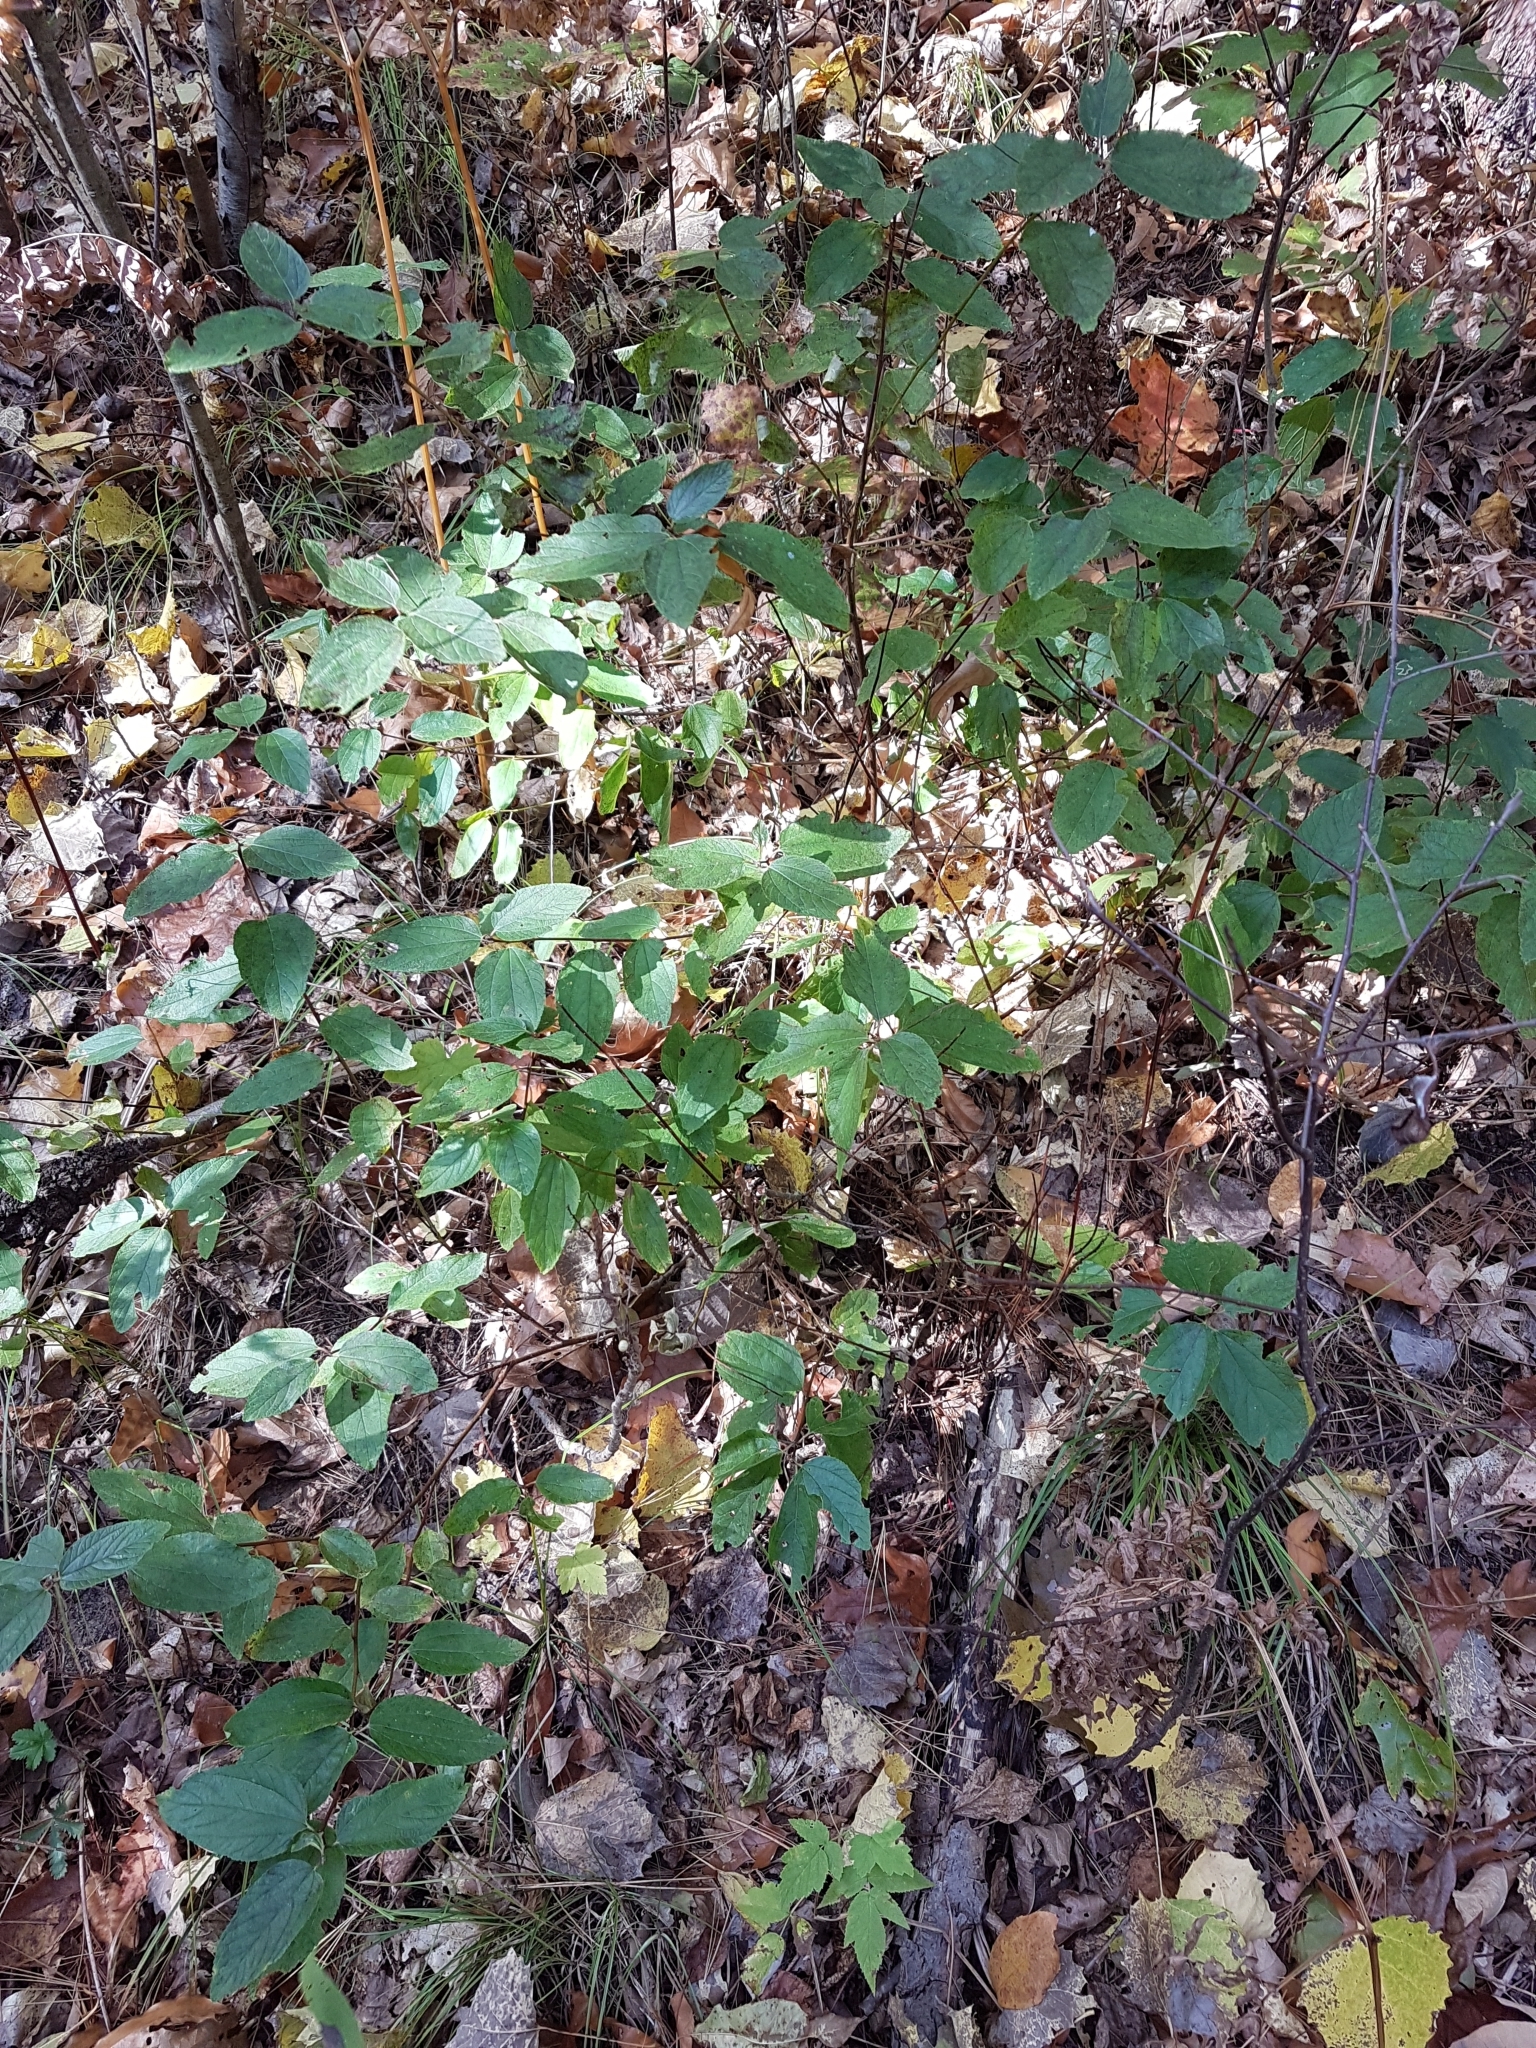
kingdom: Plantae
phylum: Tracheophyta
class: Magnoliopsida
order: Rosales
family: Rhamnaceae
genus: Ceanothus
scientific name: Ceanothus americanus
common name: Redroot
